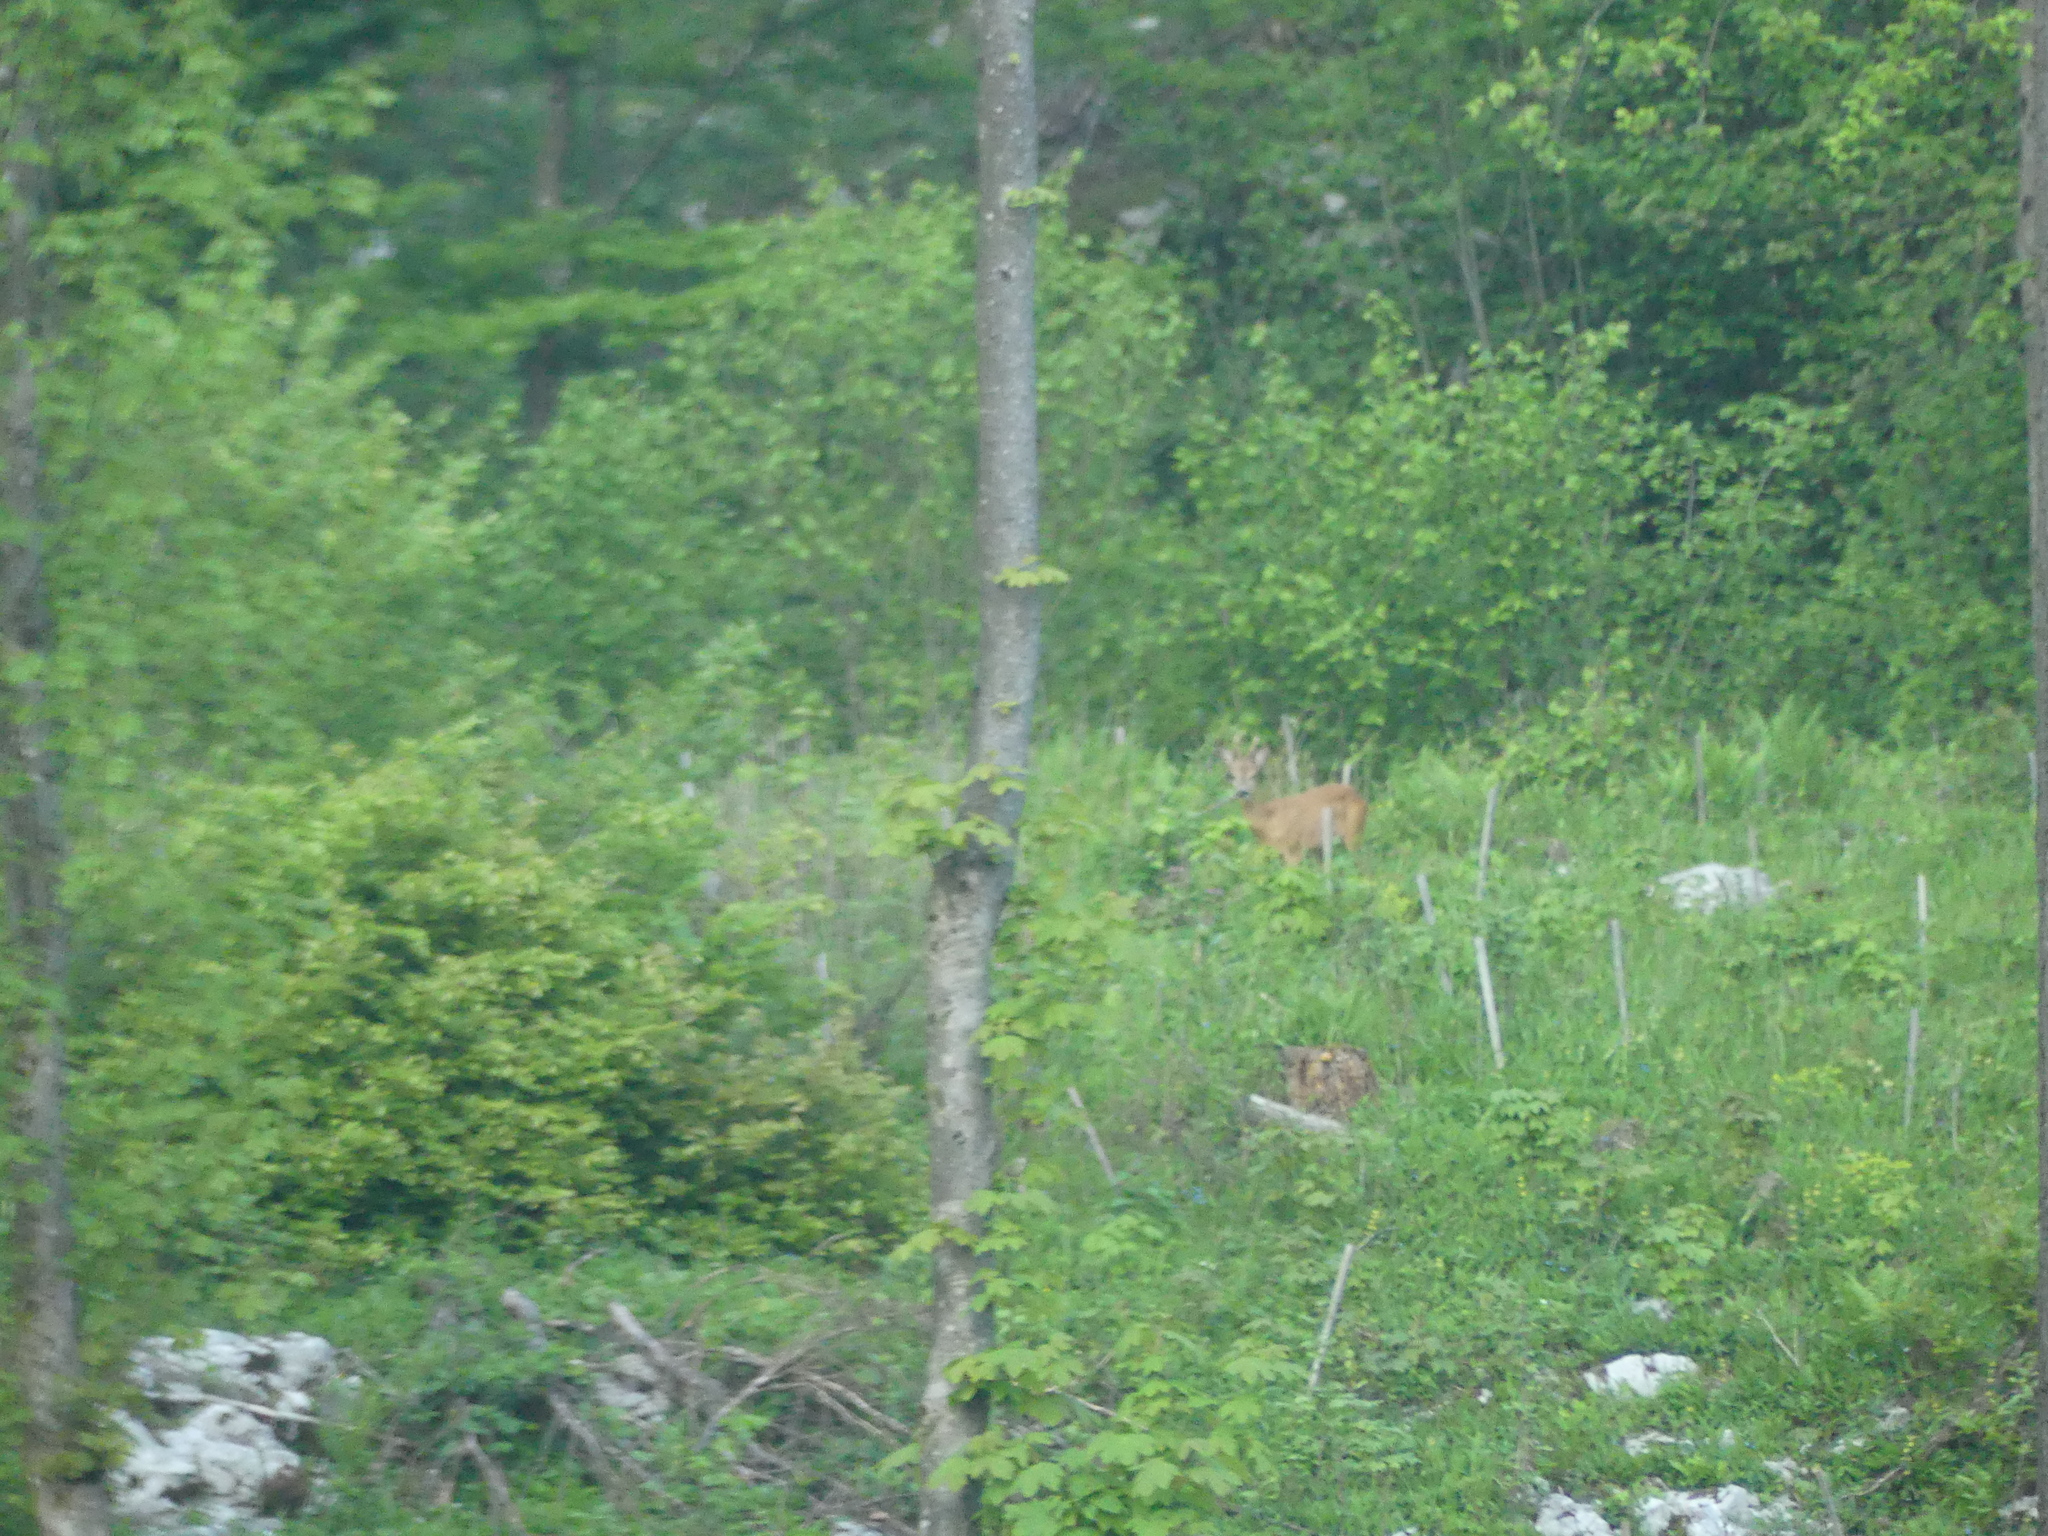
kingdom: Animalia
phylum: Chordata
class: Mammalia
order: Artiodactyla
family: Cervidae
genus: Capreolus
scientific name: Capreolus capreolus
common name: Western roe deer
